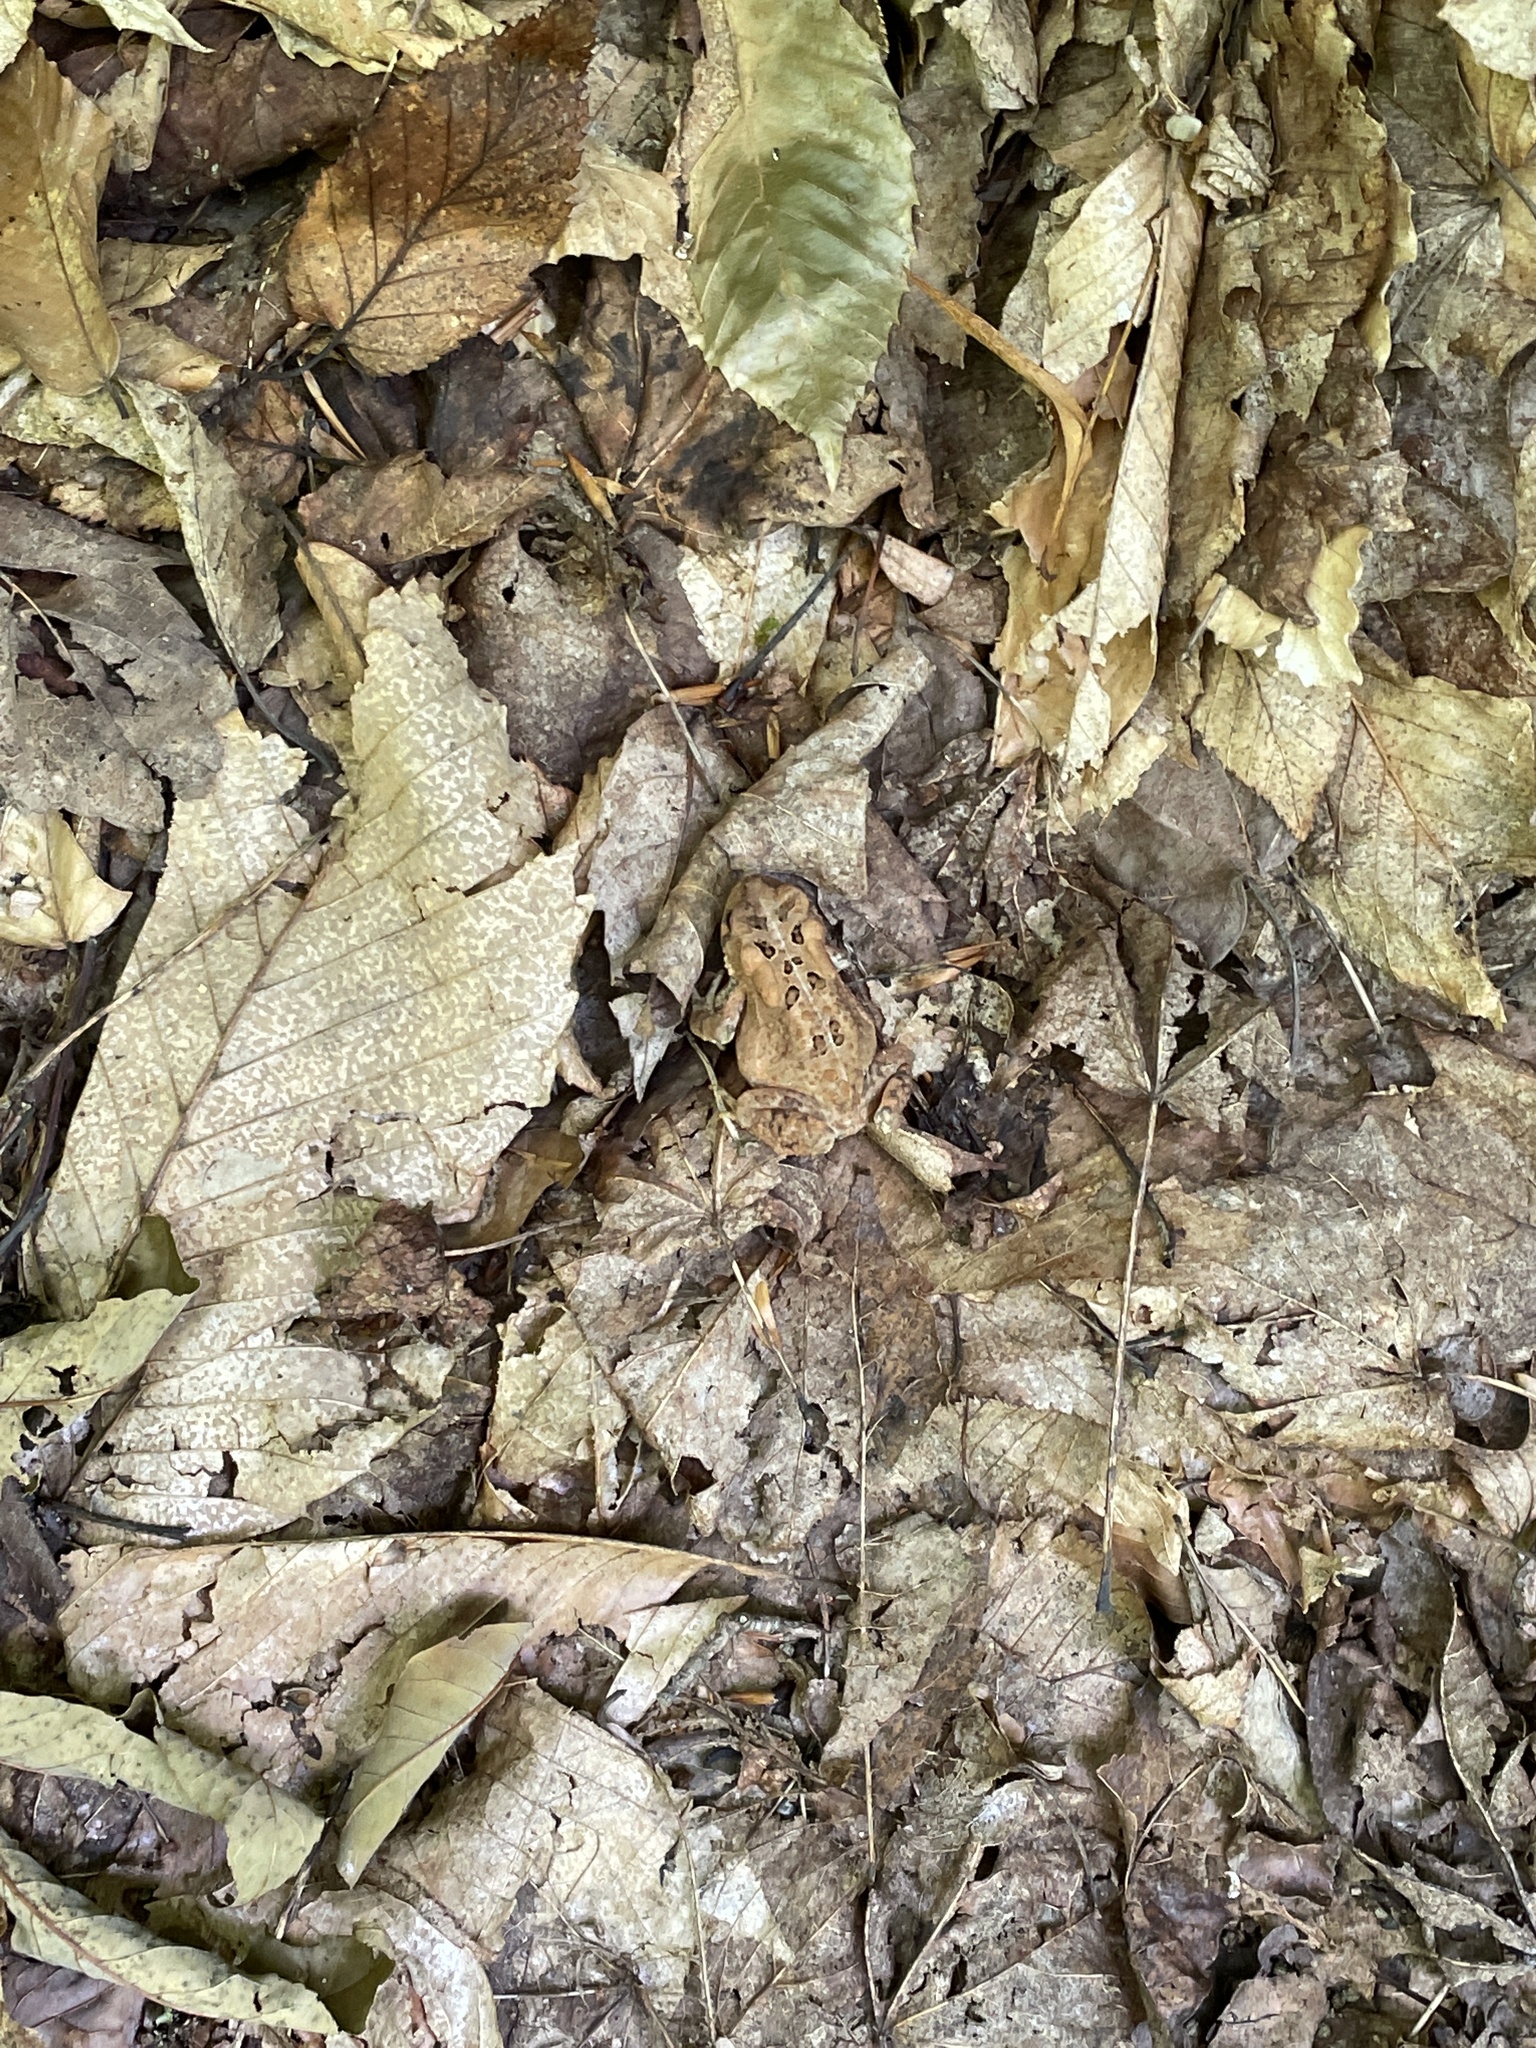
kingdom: Animalia
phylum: Chordata
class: Amphibia
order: Anura
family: Bufonidae
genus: Anaxyrus
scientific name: Anaxyrus americanus
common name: American toad
